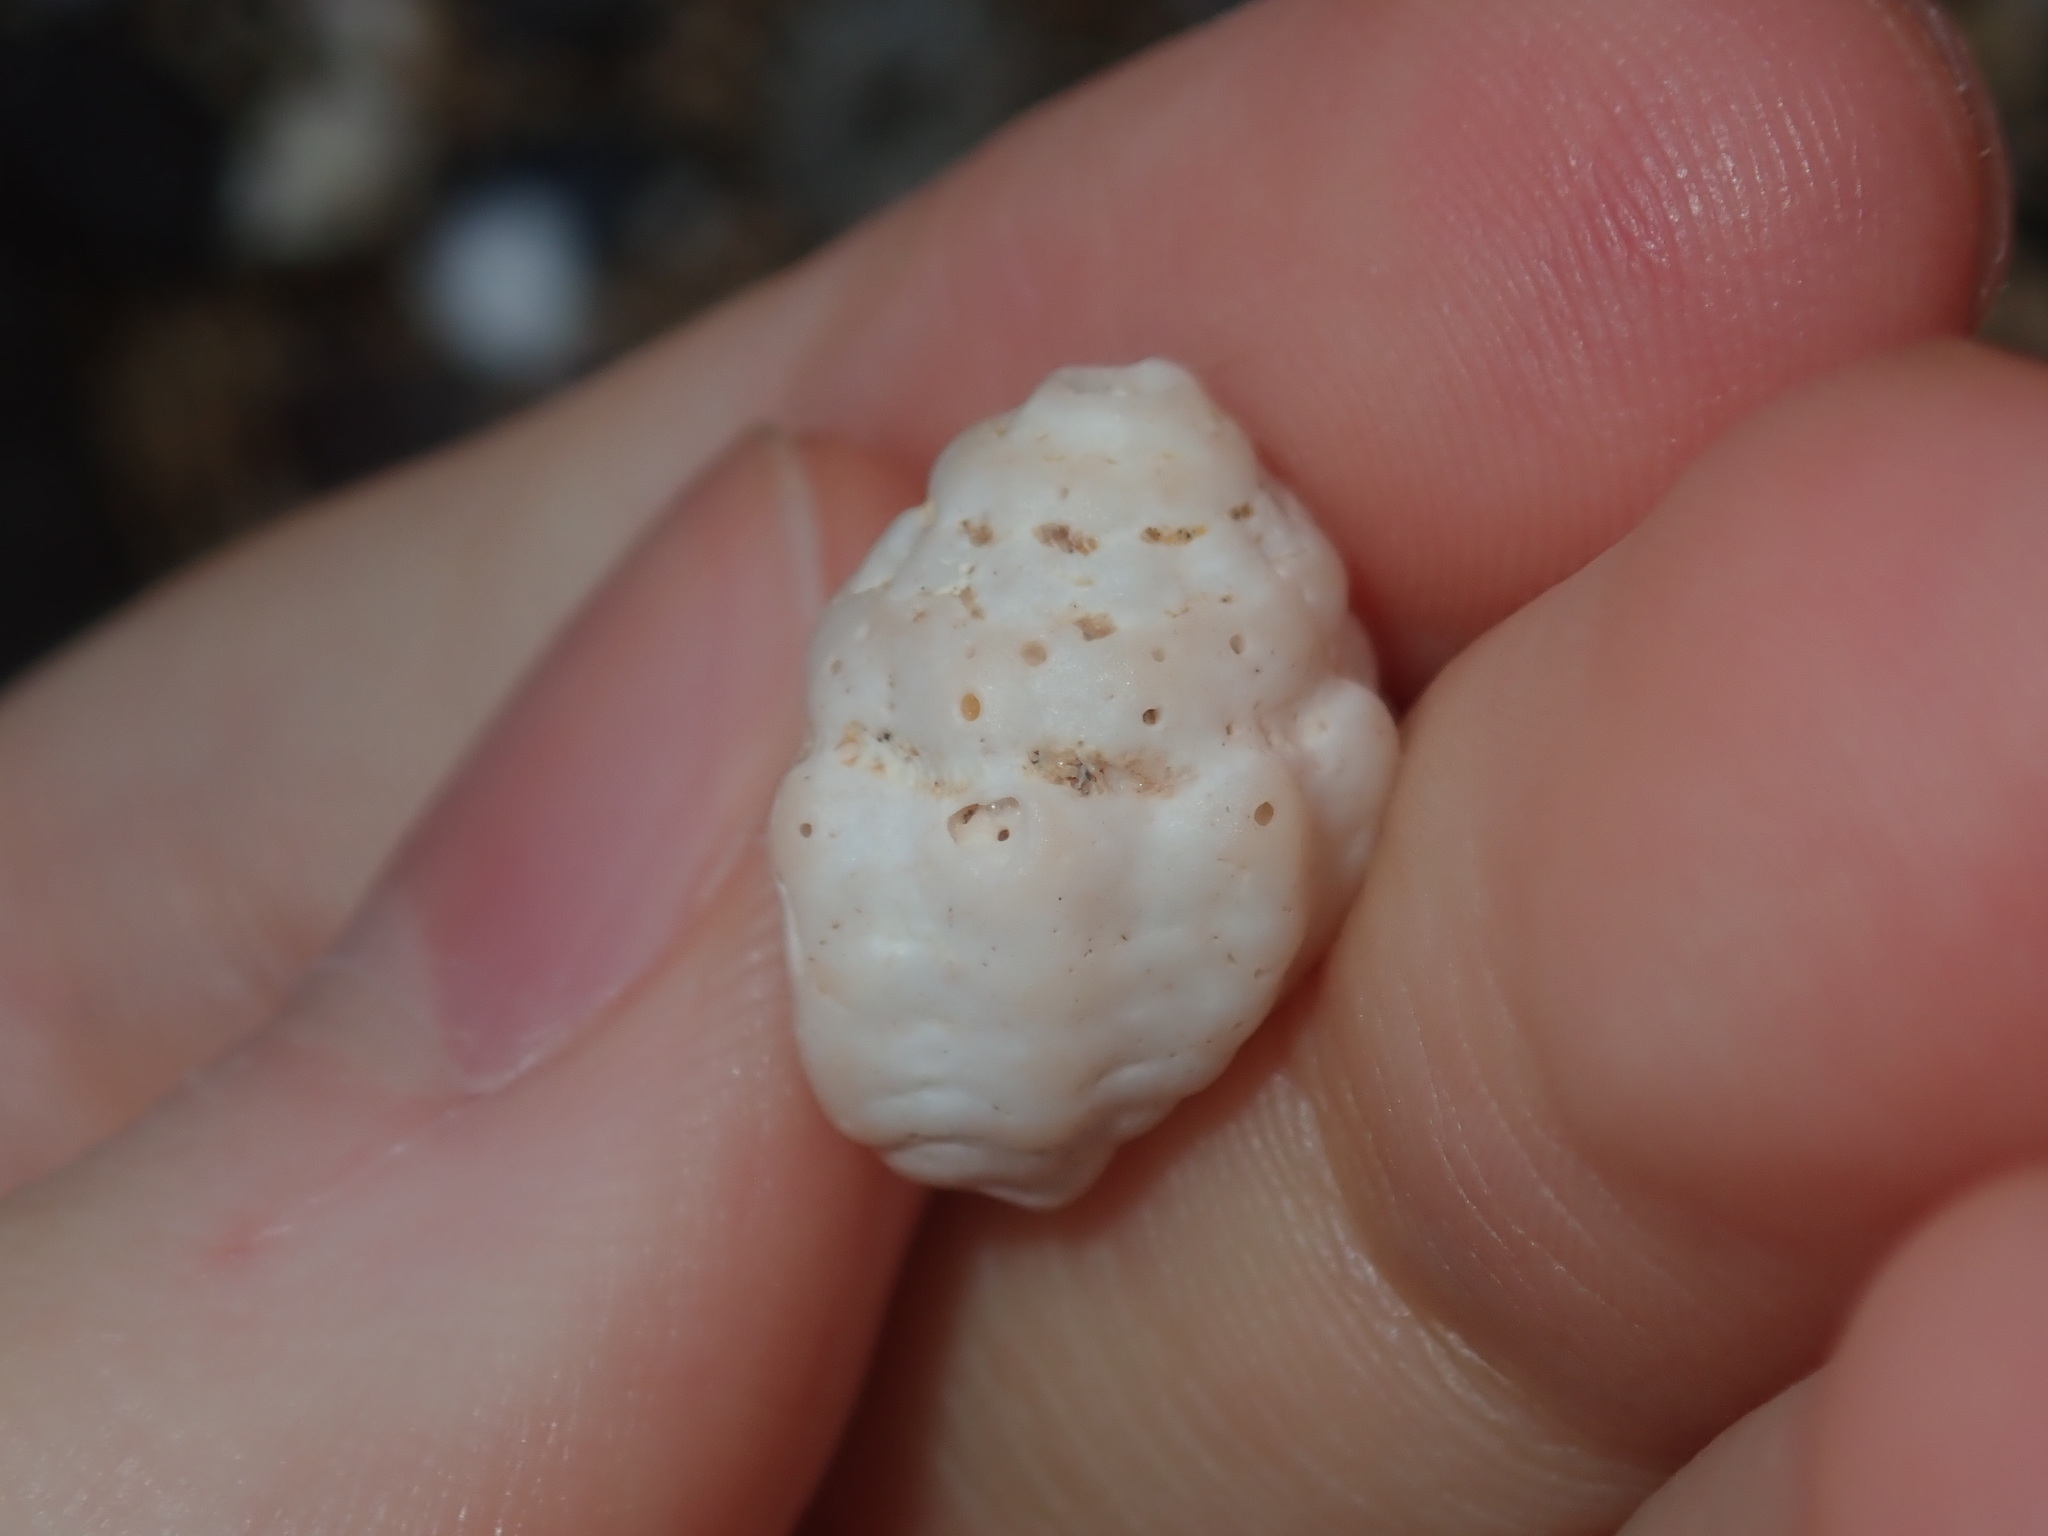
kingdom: Animalia
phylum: Mollusca
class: Gastropoda
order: Neogastropoda
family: Muricidae
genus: Oppomorus
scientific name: Oppomorus noduliferus
